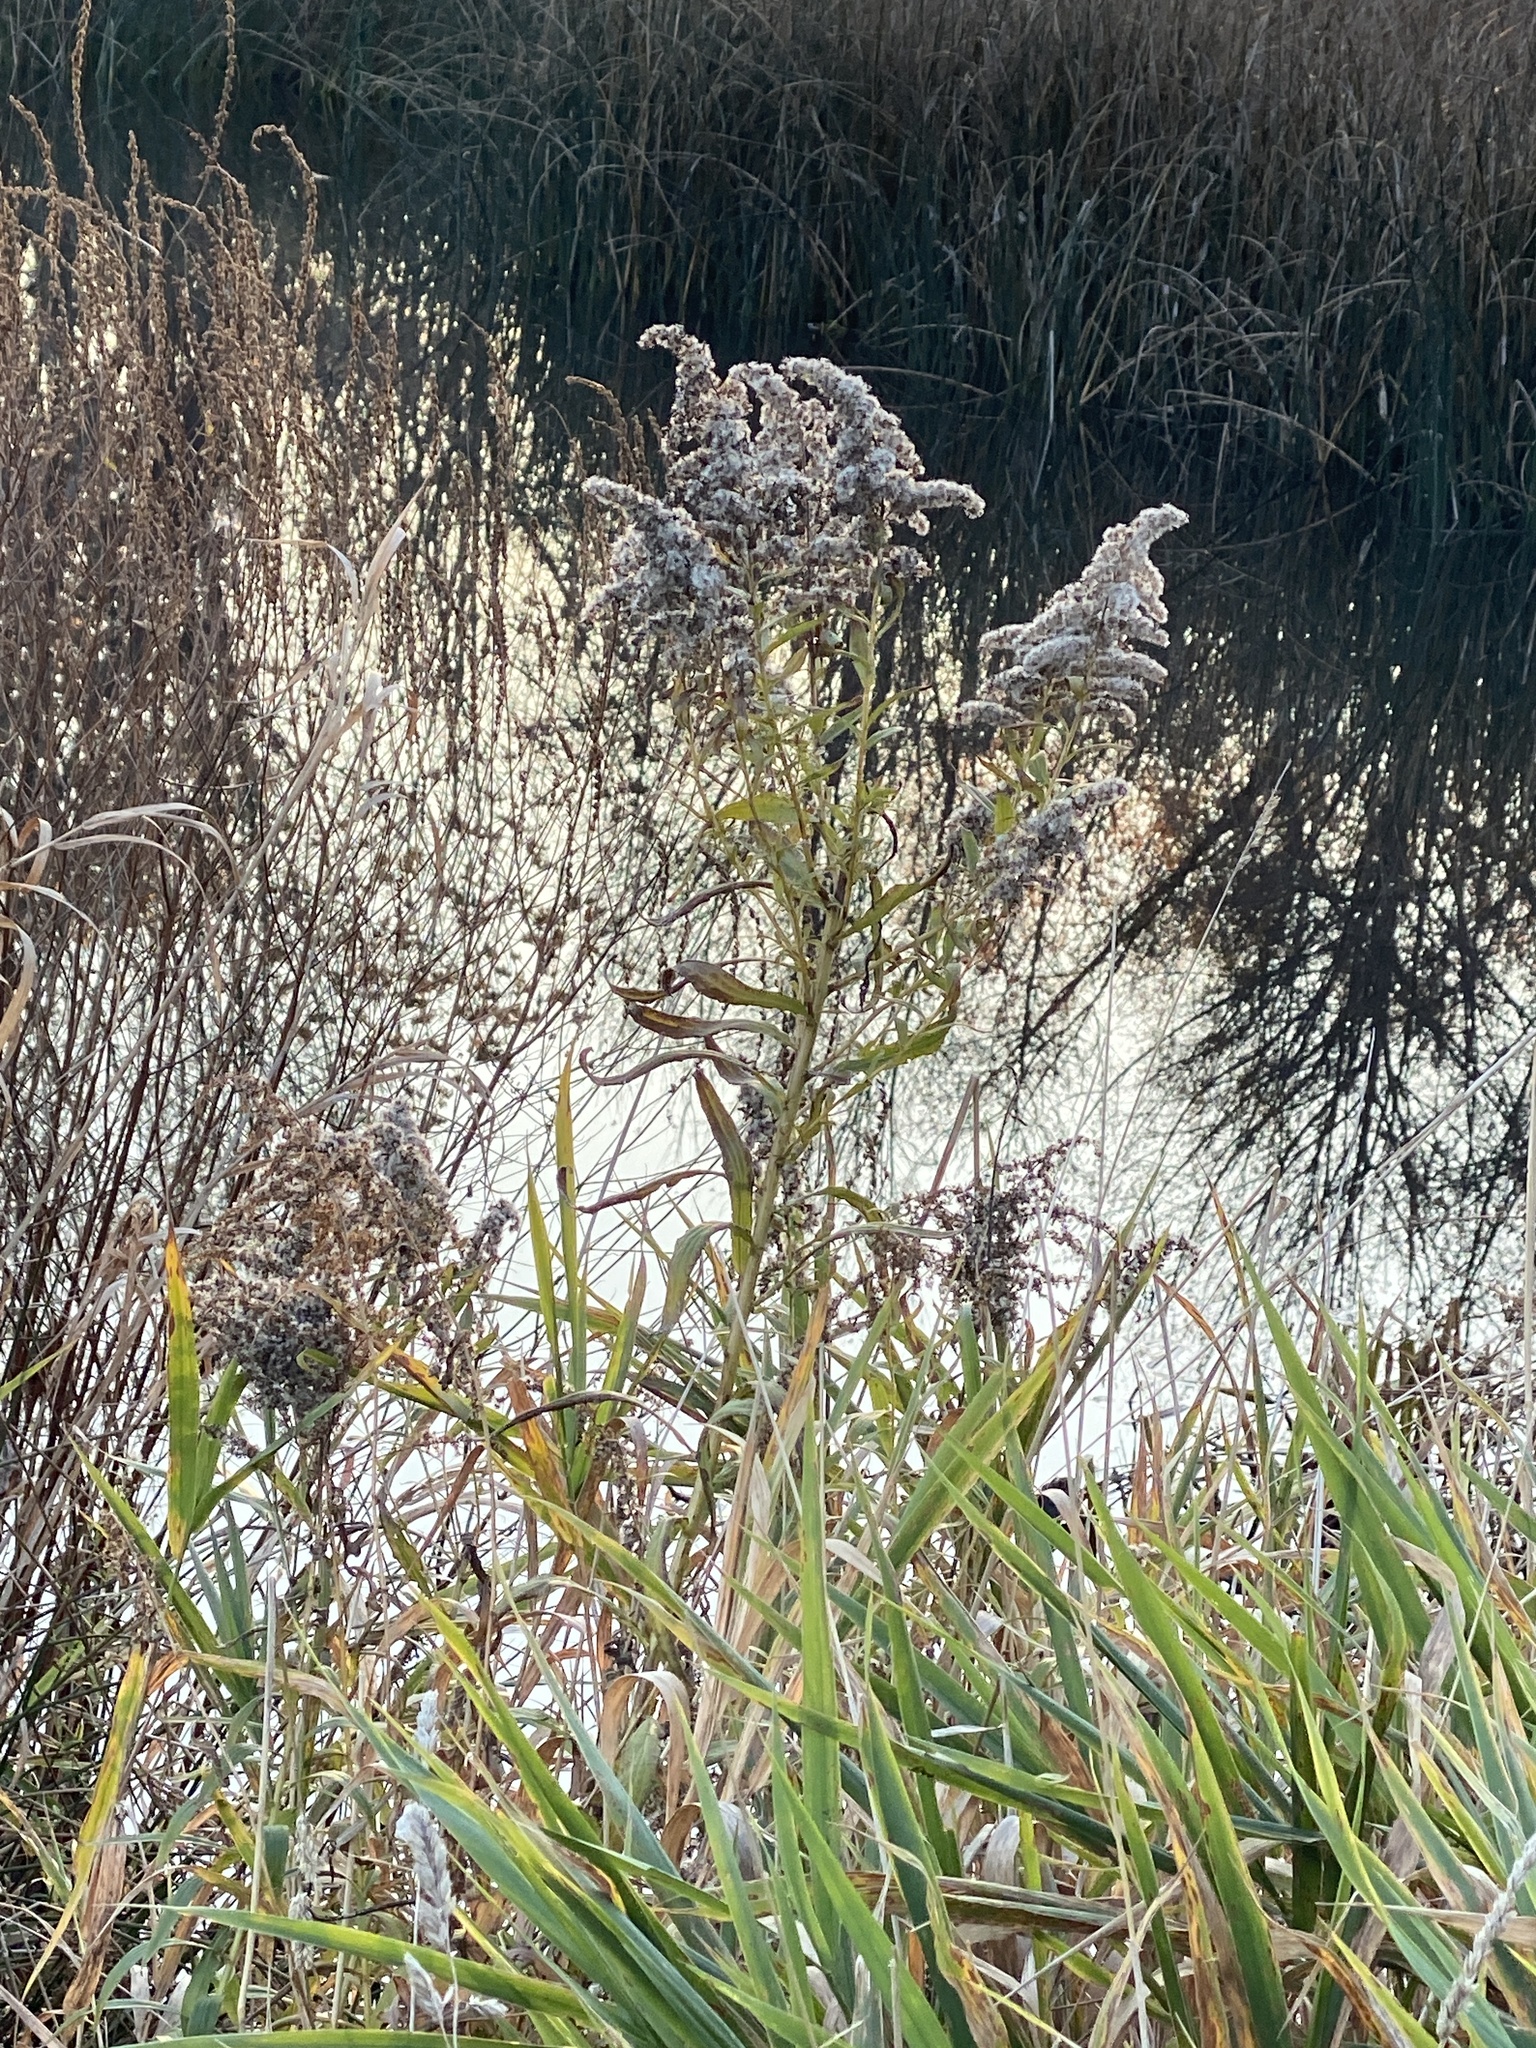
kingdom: Plantae
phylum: Tracheophyta
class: Magnoliopsida
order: Asterales
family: Asteraceae
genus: Solidago
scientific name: Solidago altissima
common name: Late goldenrod
